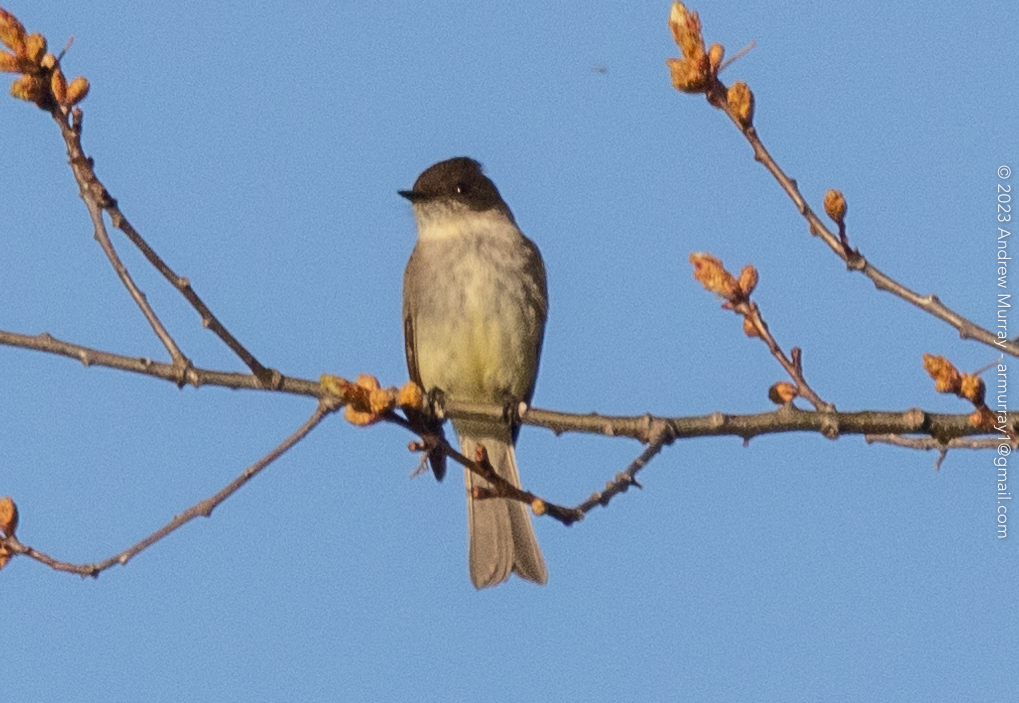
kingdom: Animalia
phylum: Chordata
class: Aves
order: Passeriformes
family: Tyrannidae
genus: Sayornis
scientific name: Sayornis phoebe
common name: Eastern phoebe
